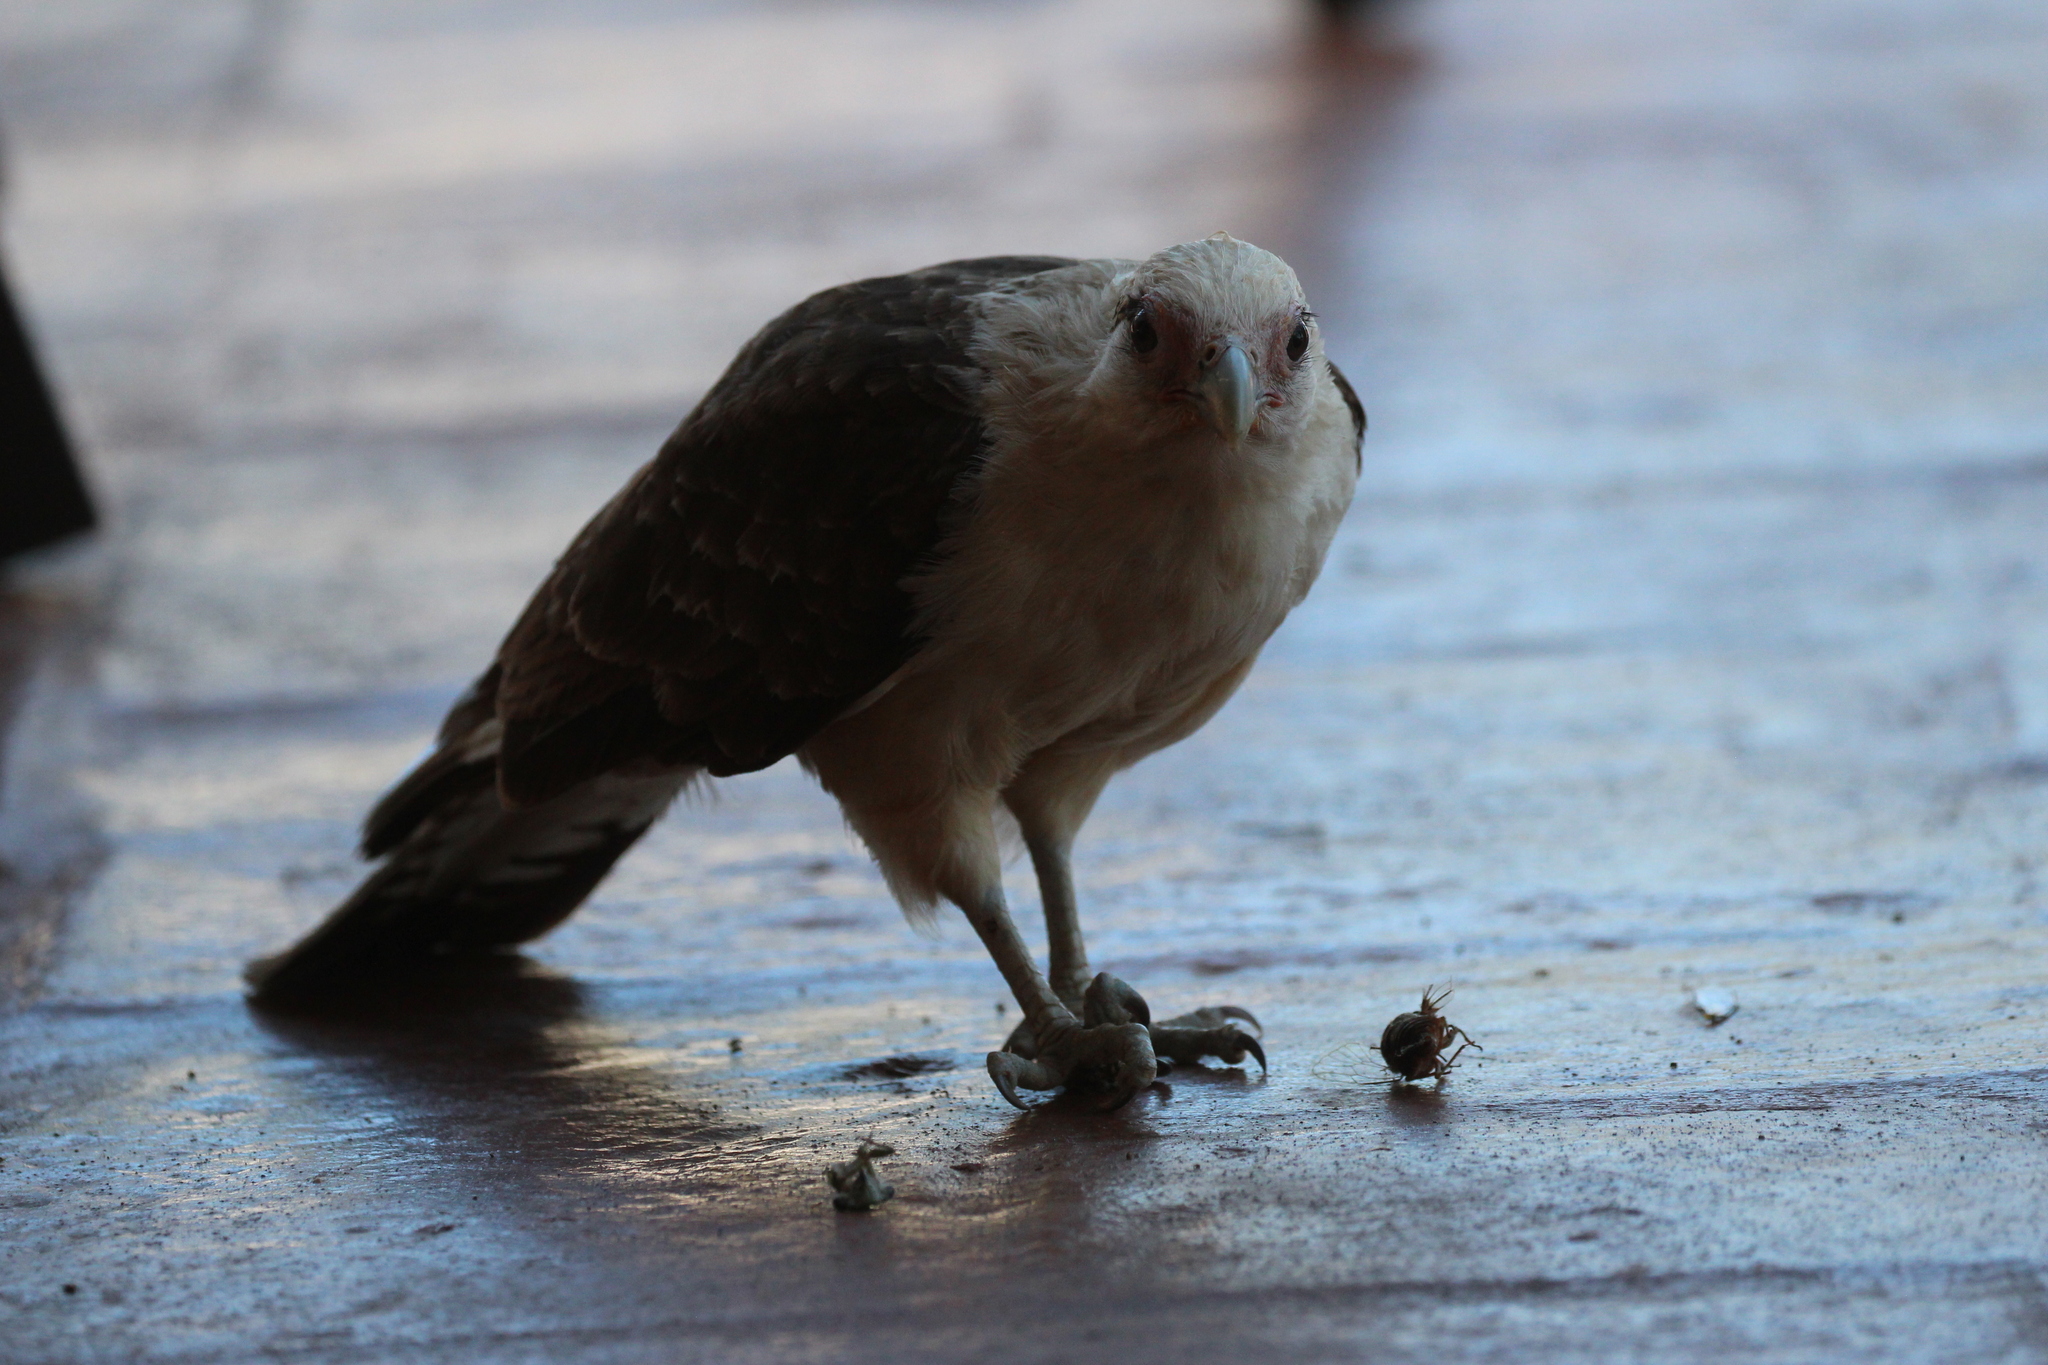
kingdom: Animalia
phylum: Chordata
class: Aves
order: Falconiformes
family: Falconidae
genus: Daptrius
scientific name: Daptrius
